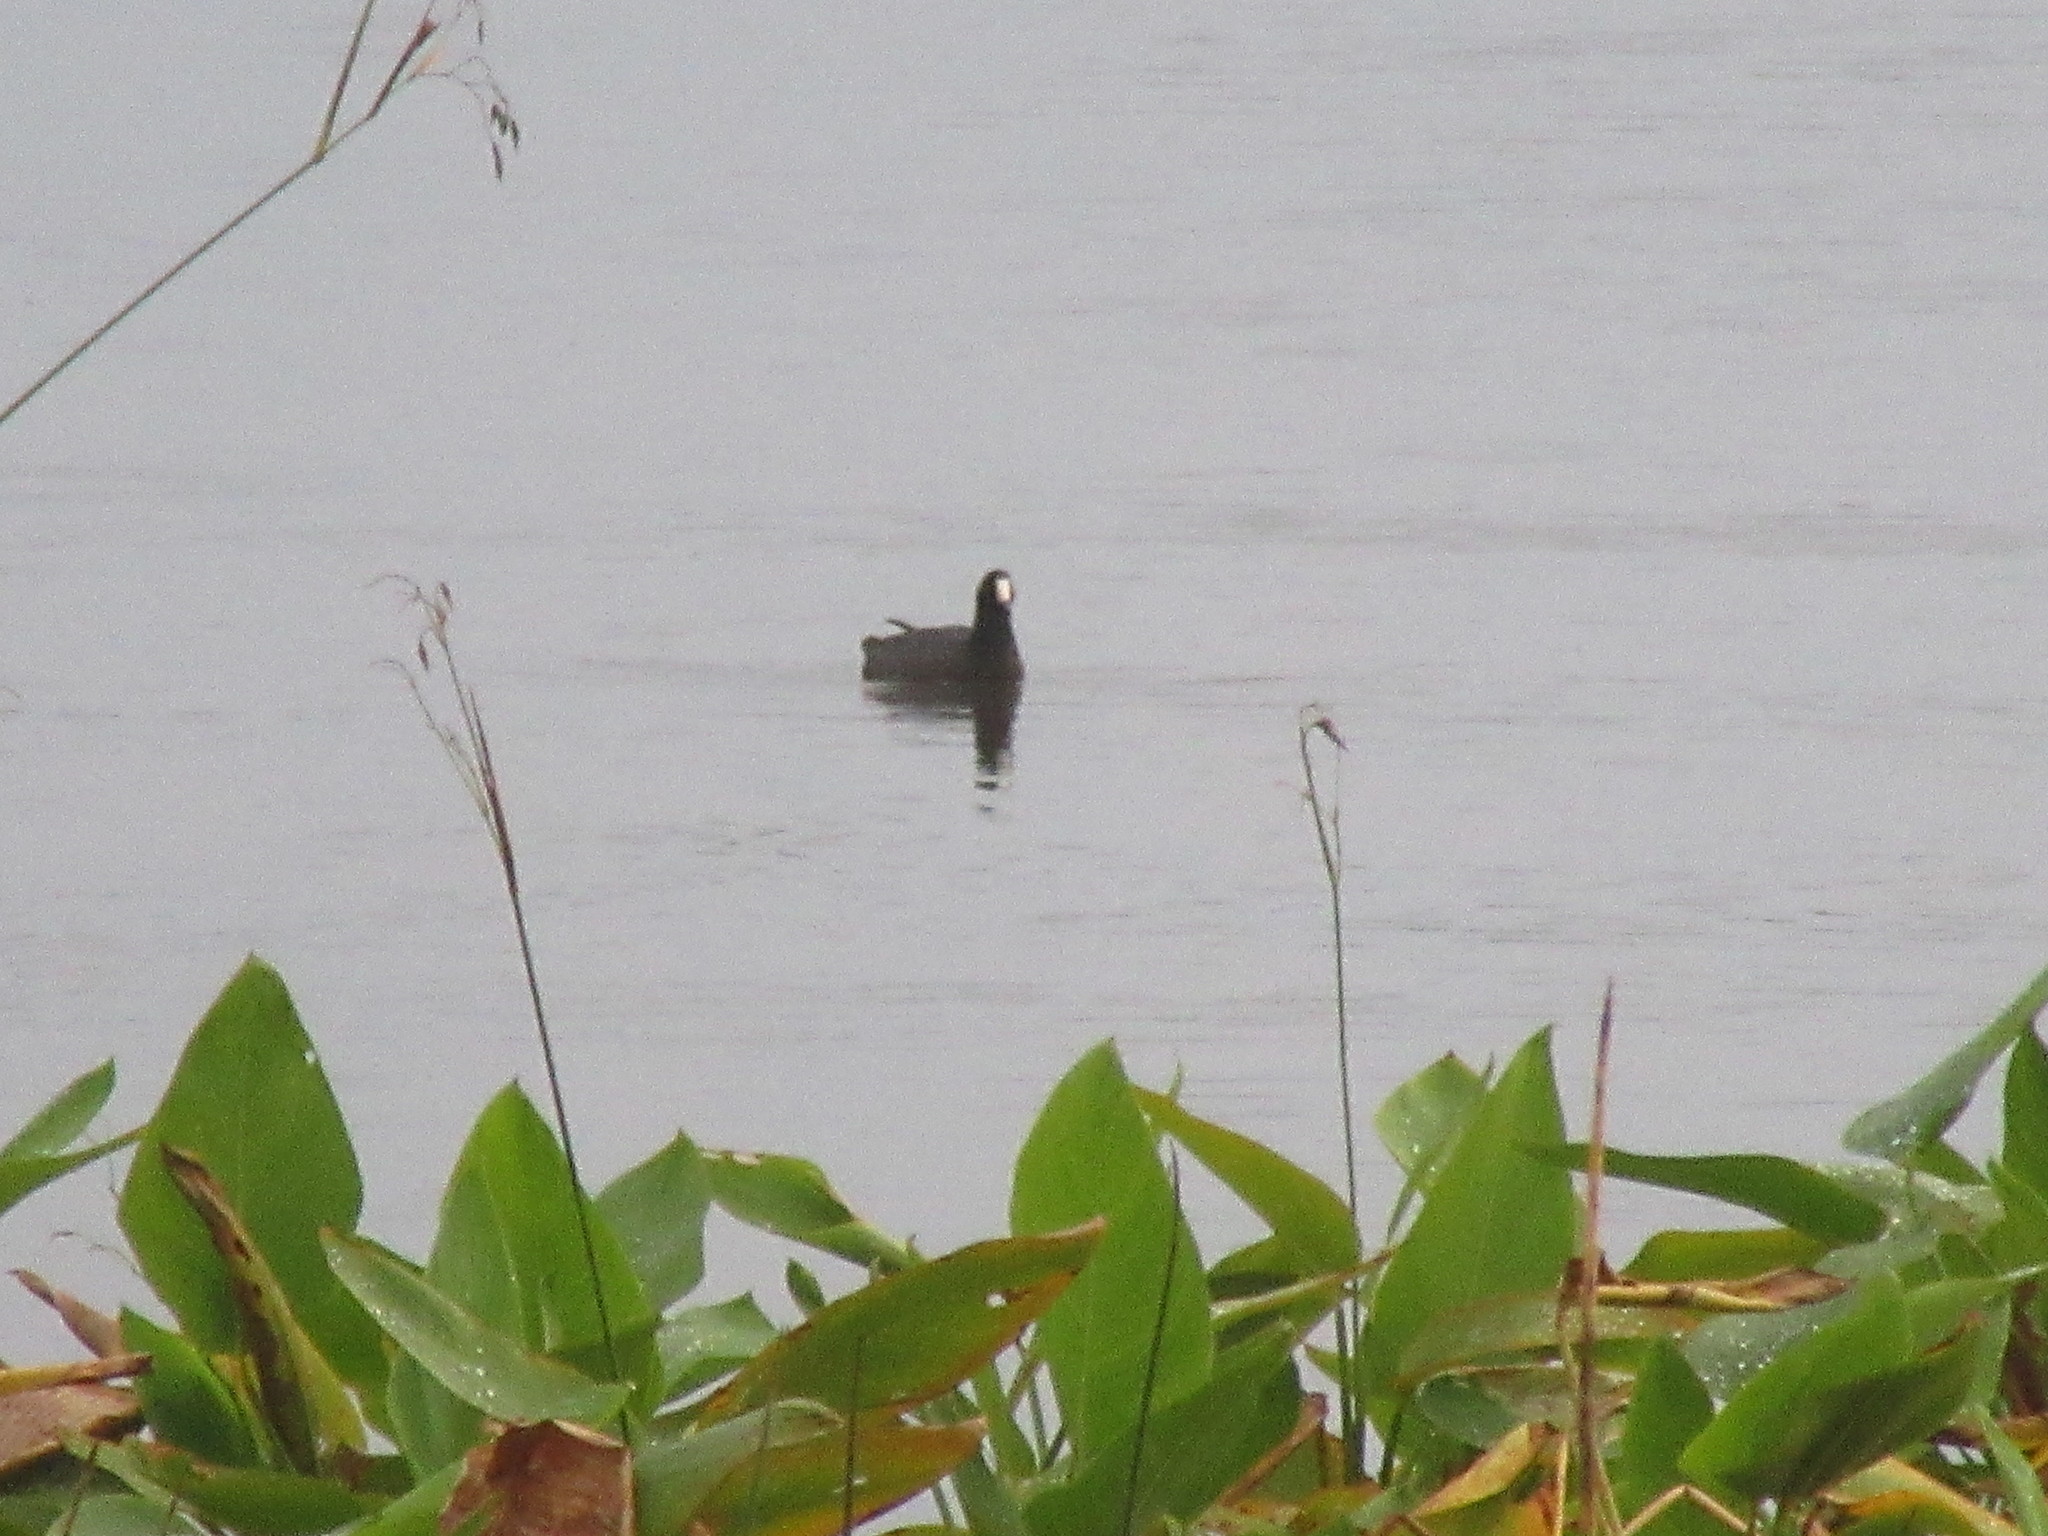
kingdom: Animalia
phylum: Chordata
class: Aves
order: Gruiformes
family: Rallidae
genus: Fulica
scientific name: Fulica americana
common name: American coot
